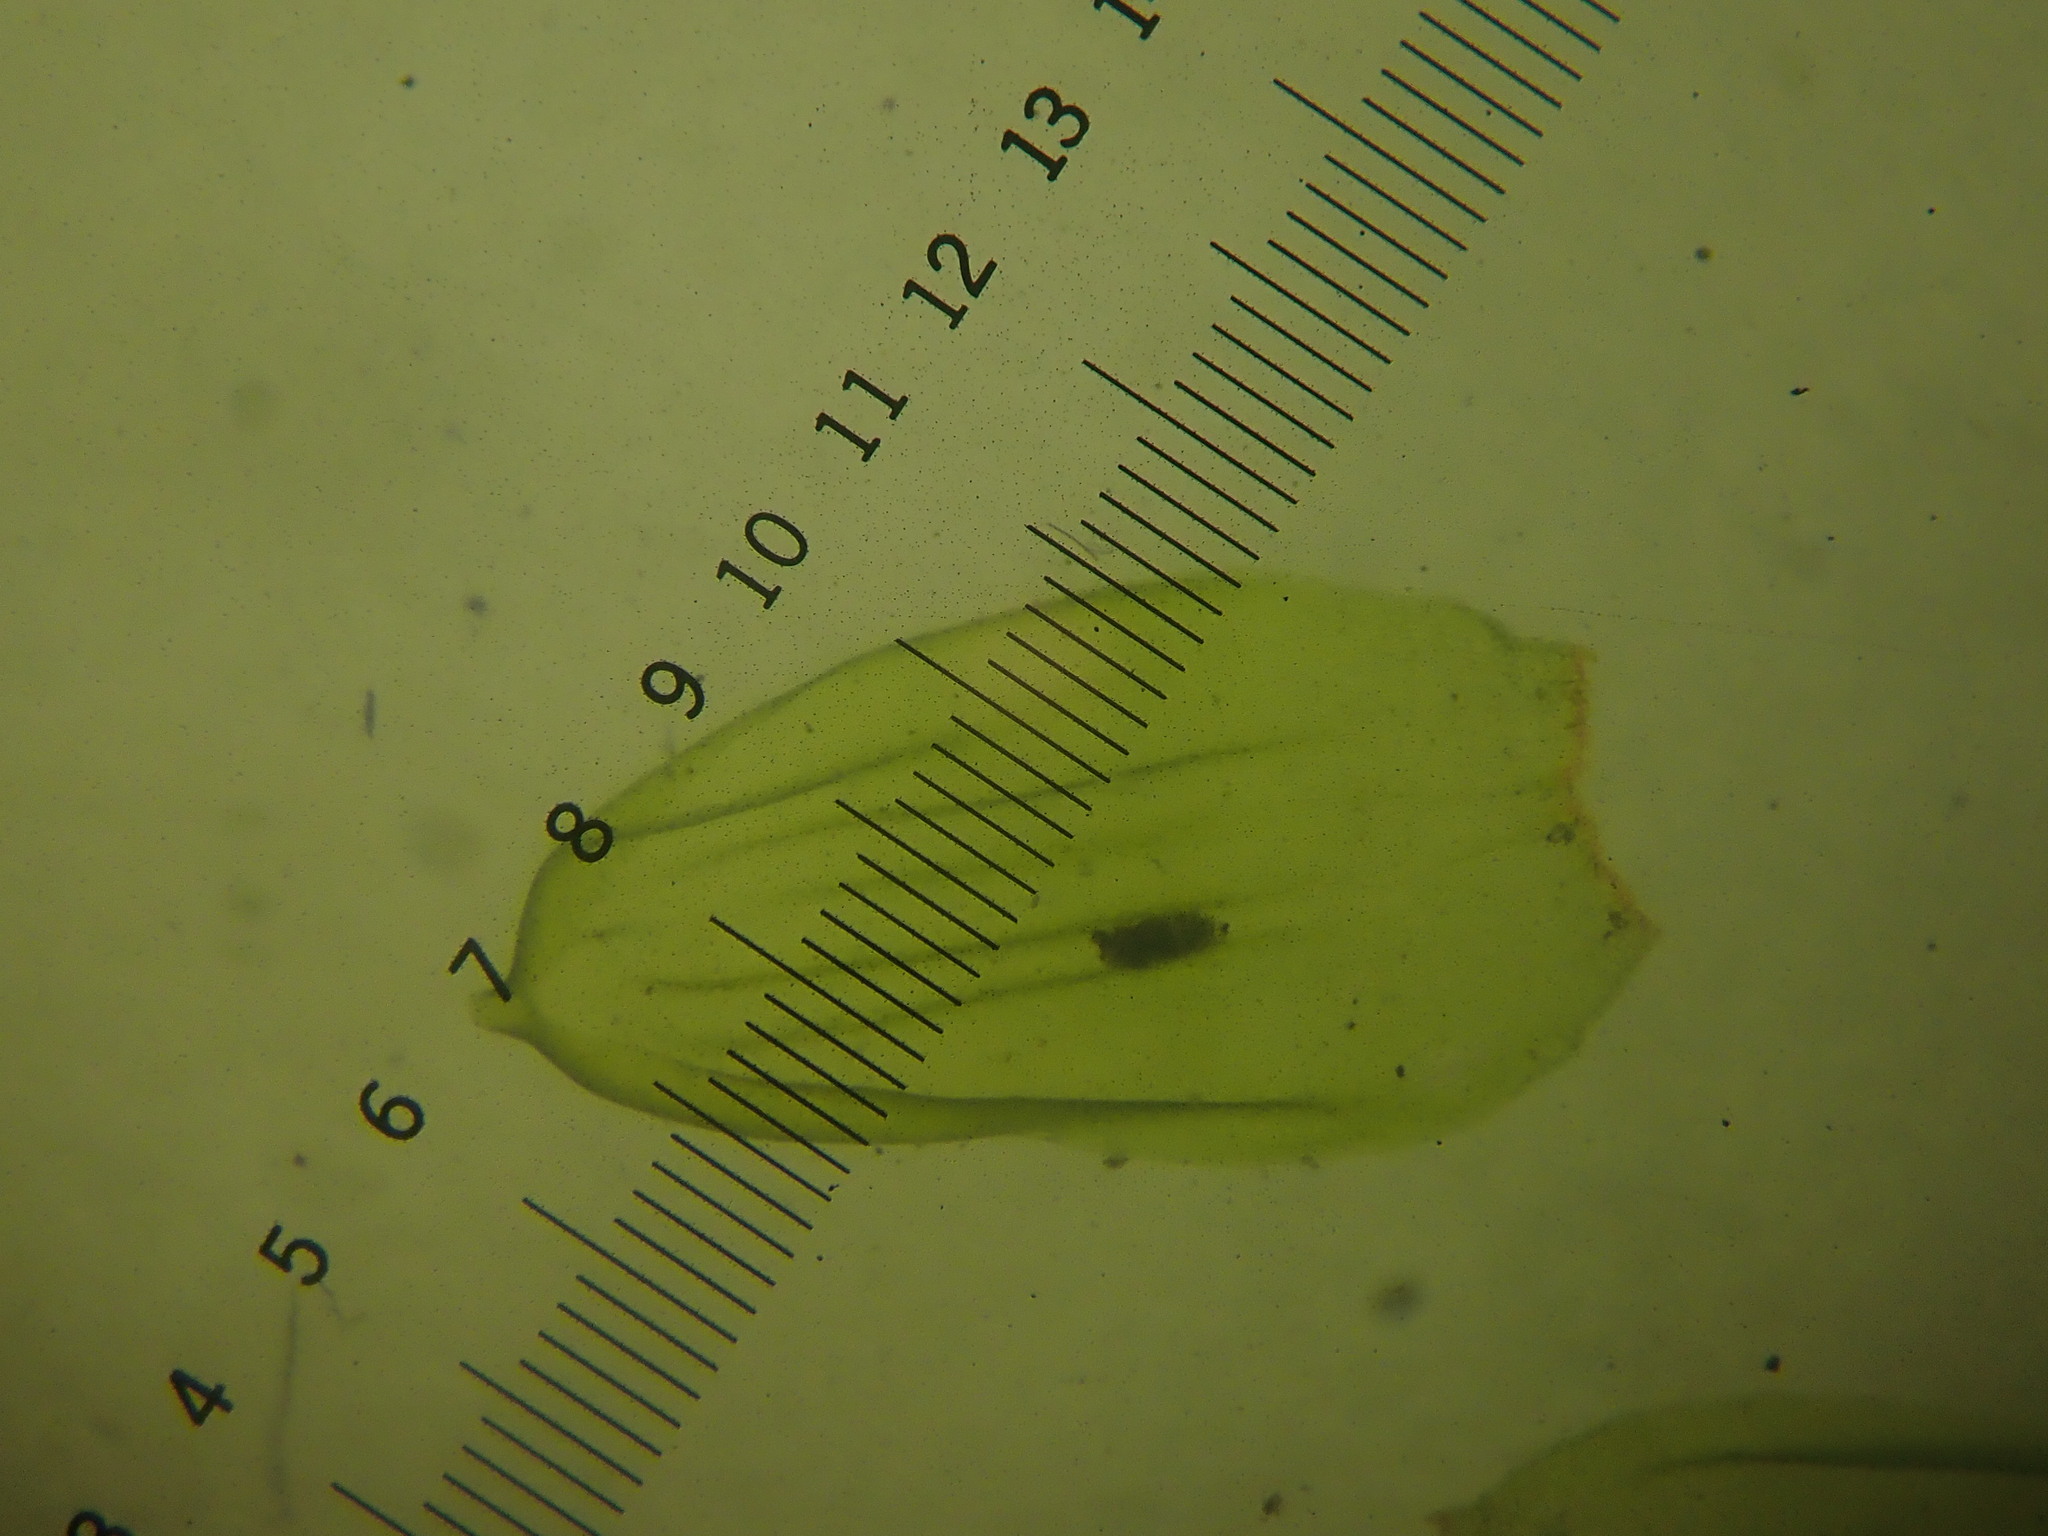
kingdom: Plantae
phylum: Bryophyta
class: Bryopsida
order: Hypnales
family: Hylocomiaceae
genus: Pleurozium
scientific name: Pleurozium schreberi
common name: Red-stemmed feather moss
